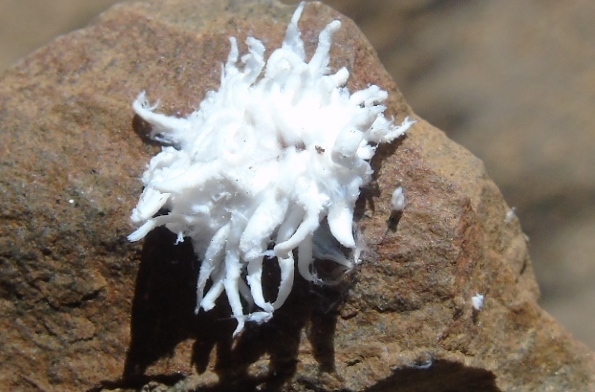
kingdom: Animalia
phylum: Arthropoda
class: Insecta
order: Coleoptera
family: Coccinellidae
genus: Cryptolaemus
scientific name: Cryptolaemus montrouzieri
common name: Mealybug destroyer
